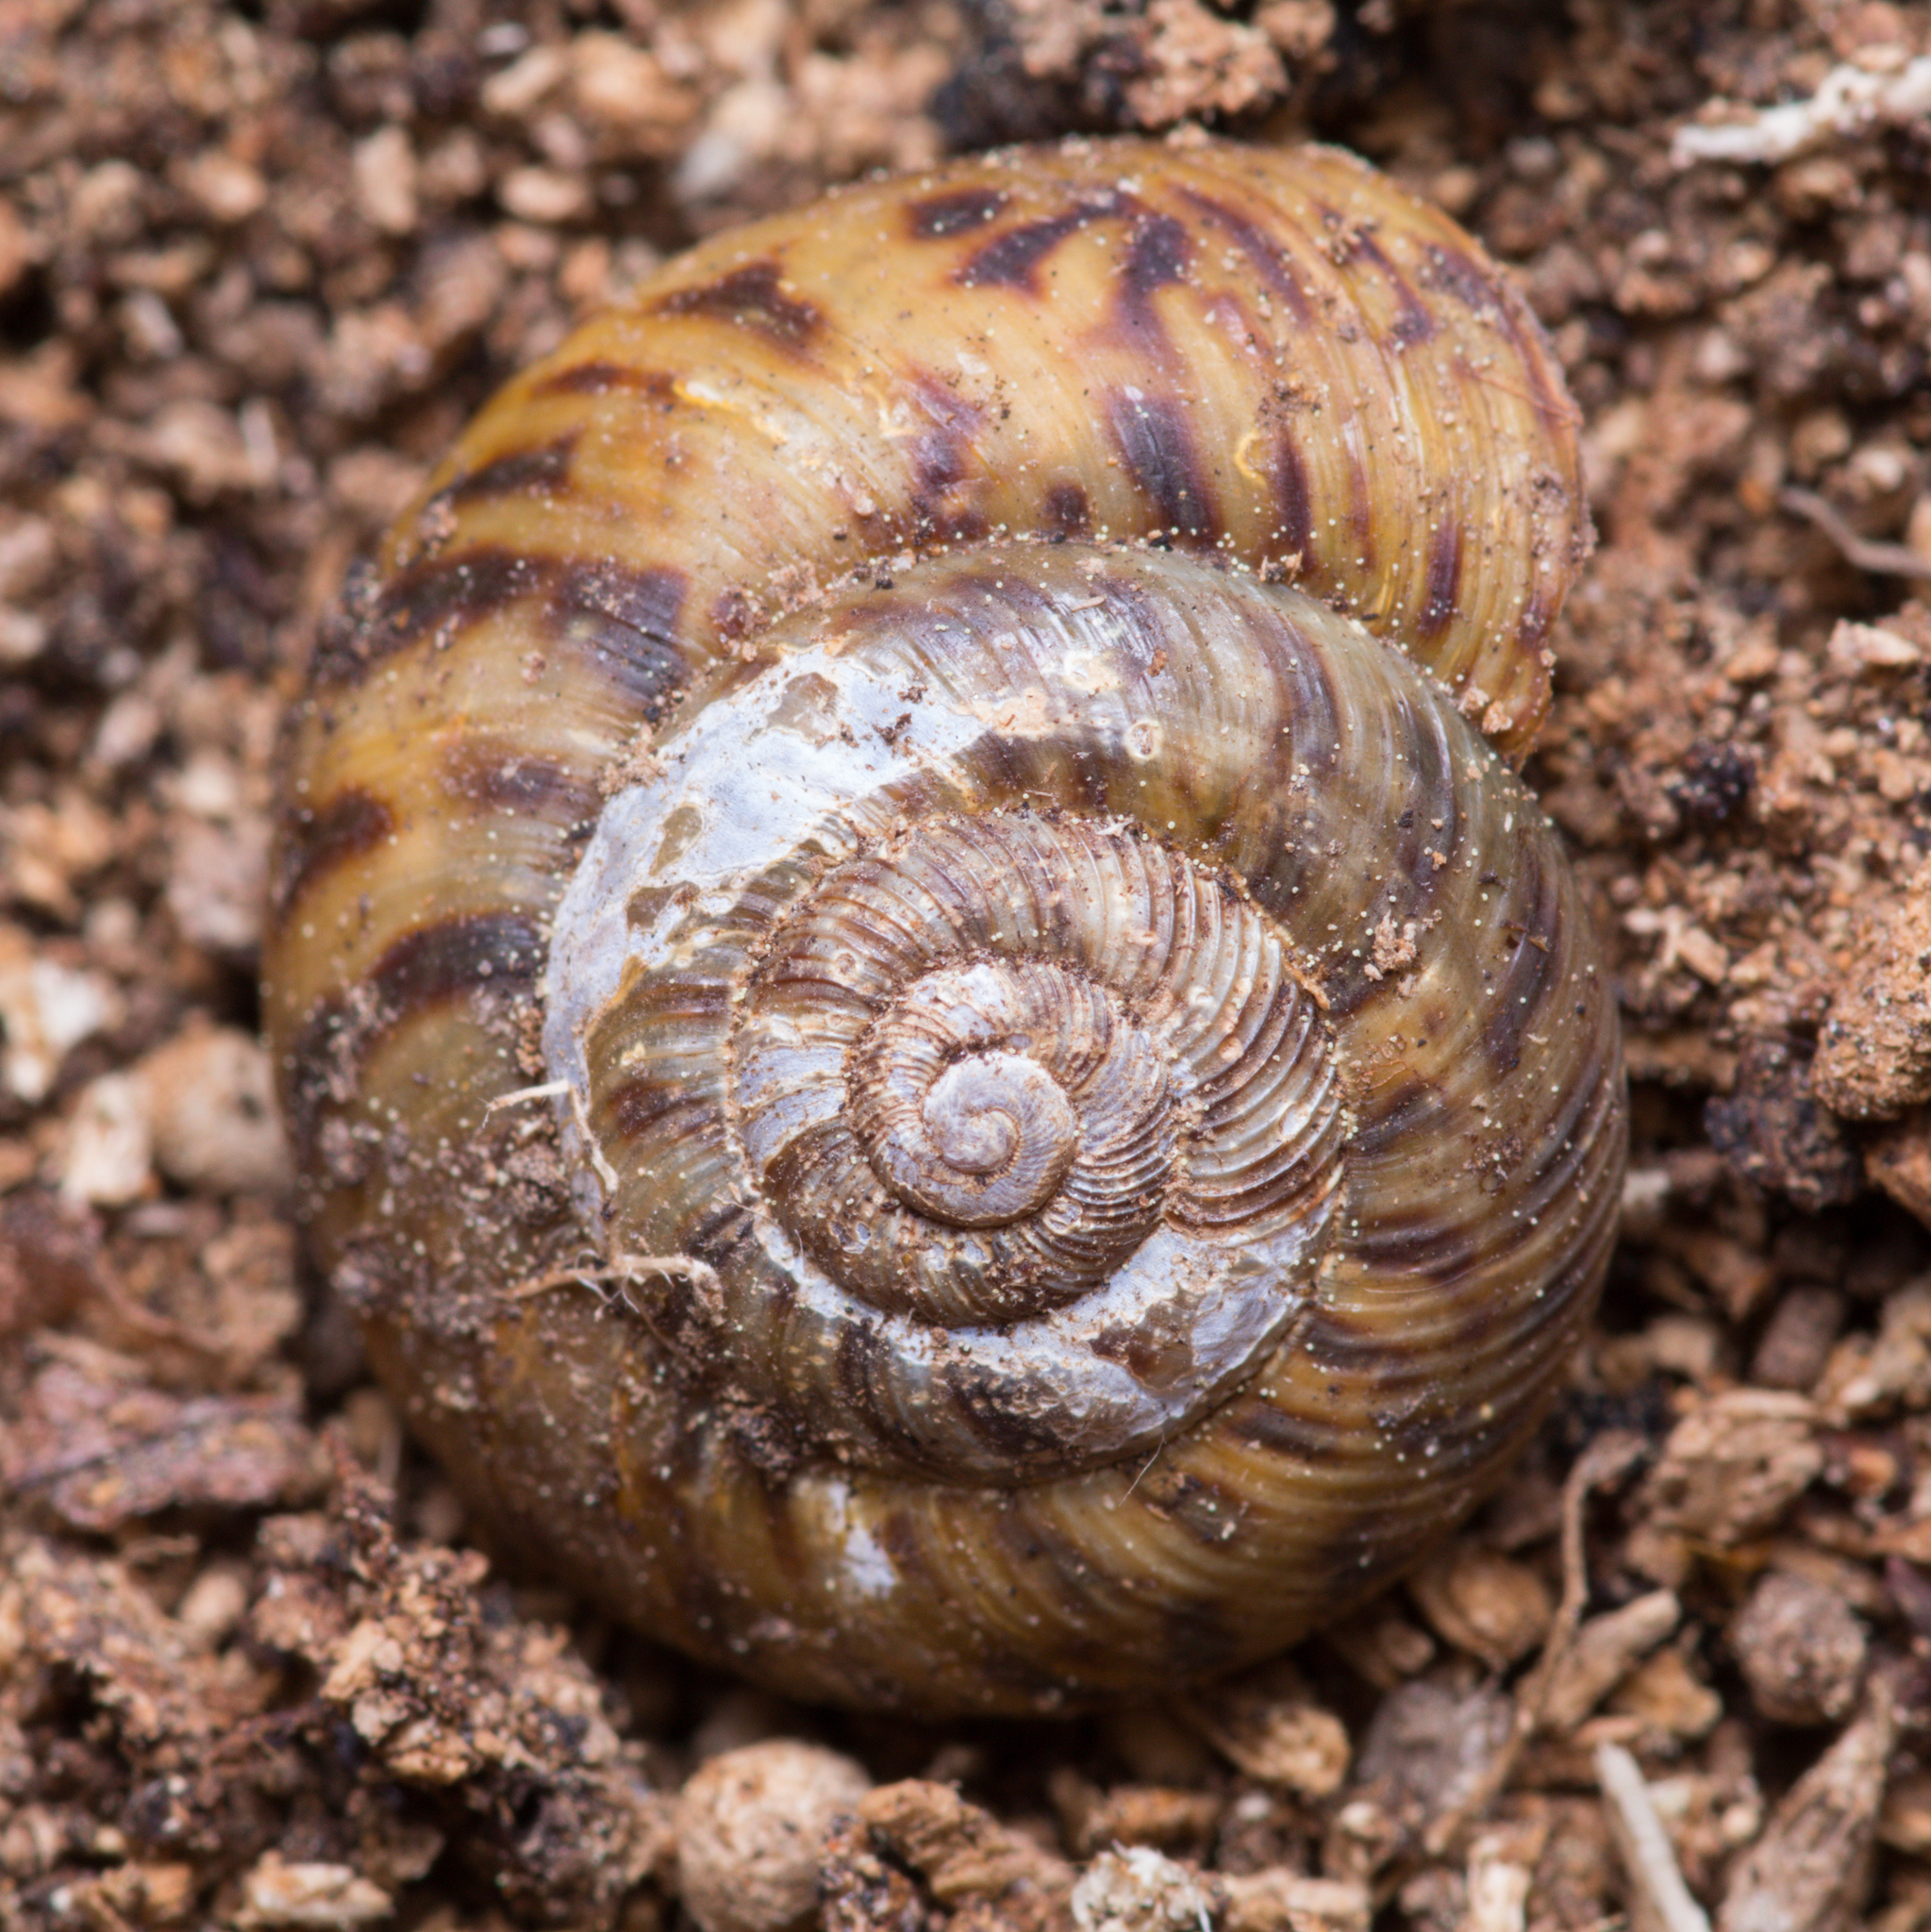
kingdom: Animalia
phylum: Mollusca
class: Gastropoda
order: Stylommatophora
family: Discidae
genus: Anguispira
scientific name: Anguispira fergusoni
